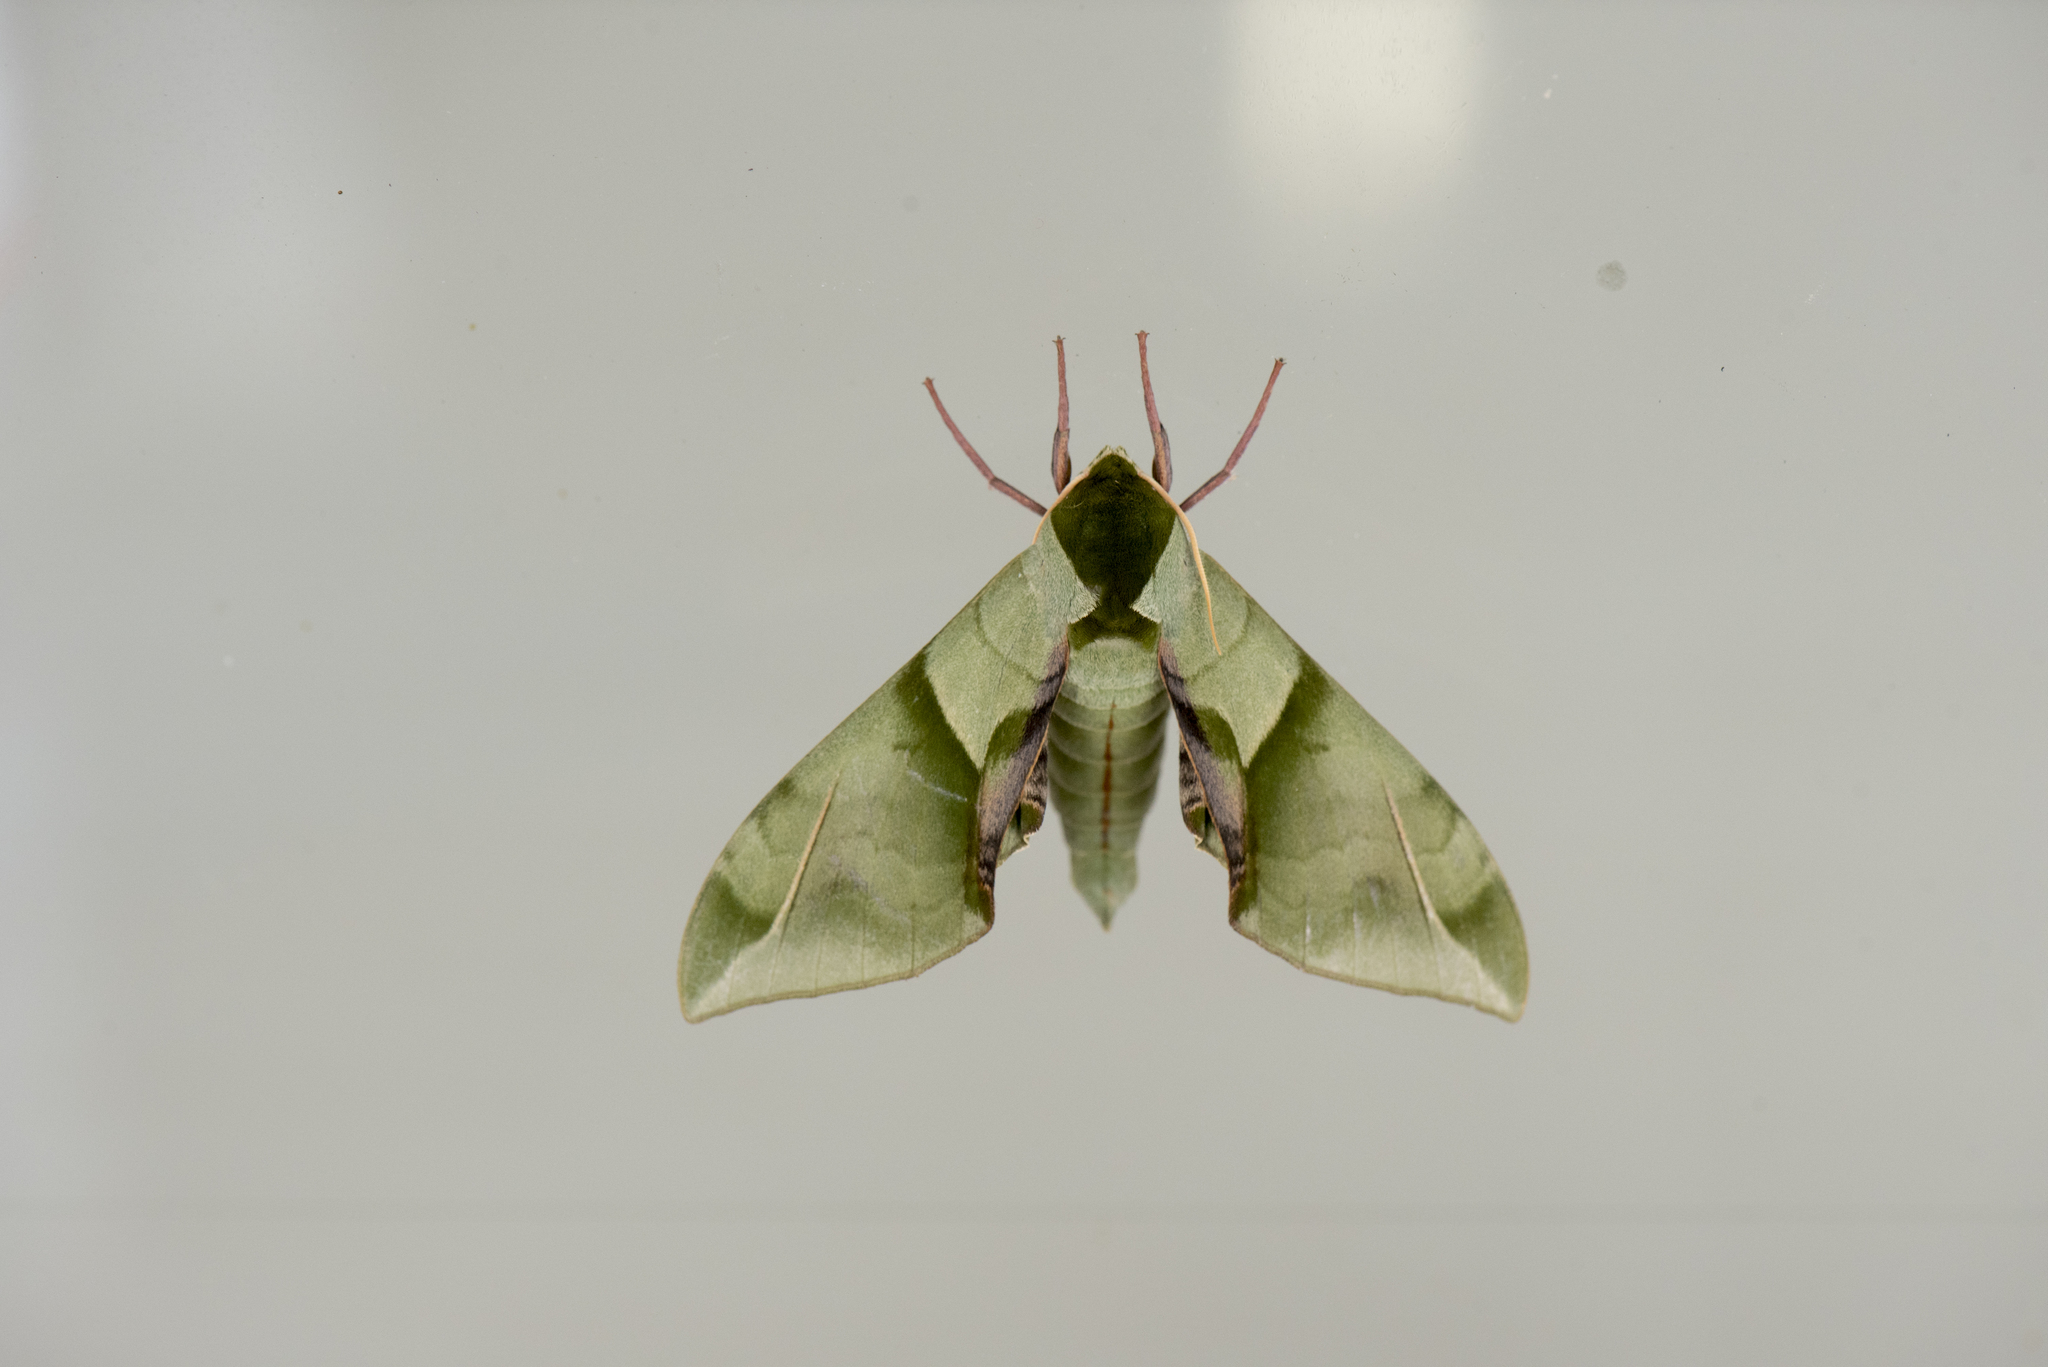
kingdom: Animalia
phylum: Arthropoda
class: Insecta
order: Lepidoptera
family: Sphingidae
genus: Callambulyx
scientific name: Callambulyx tatarinovii
